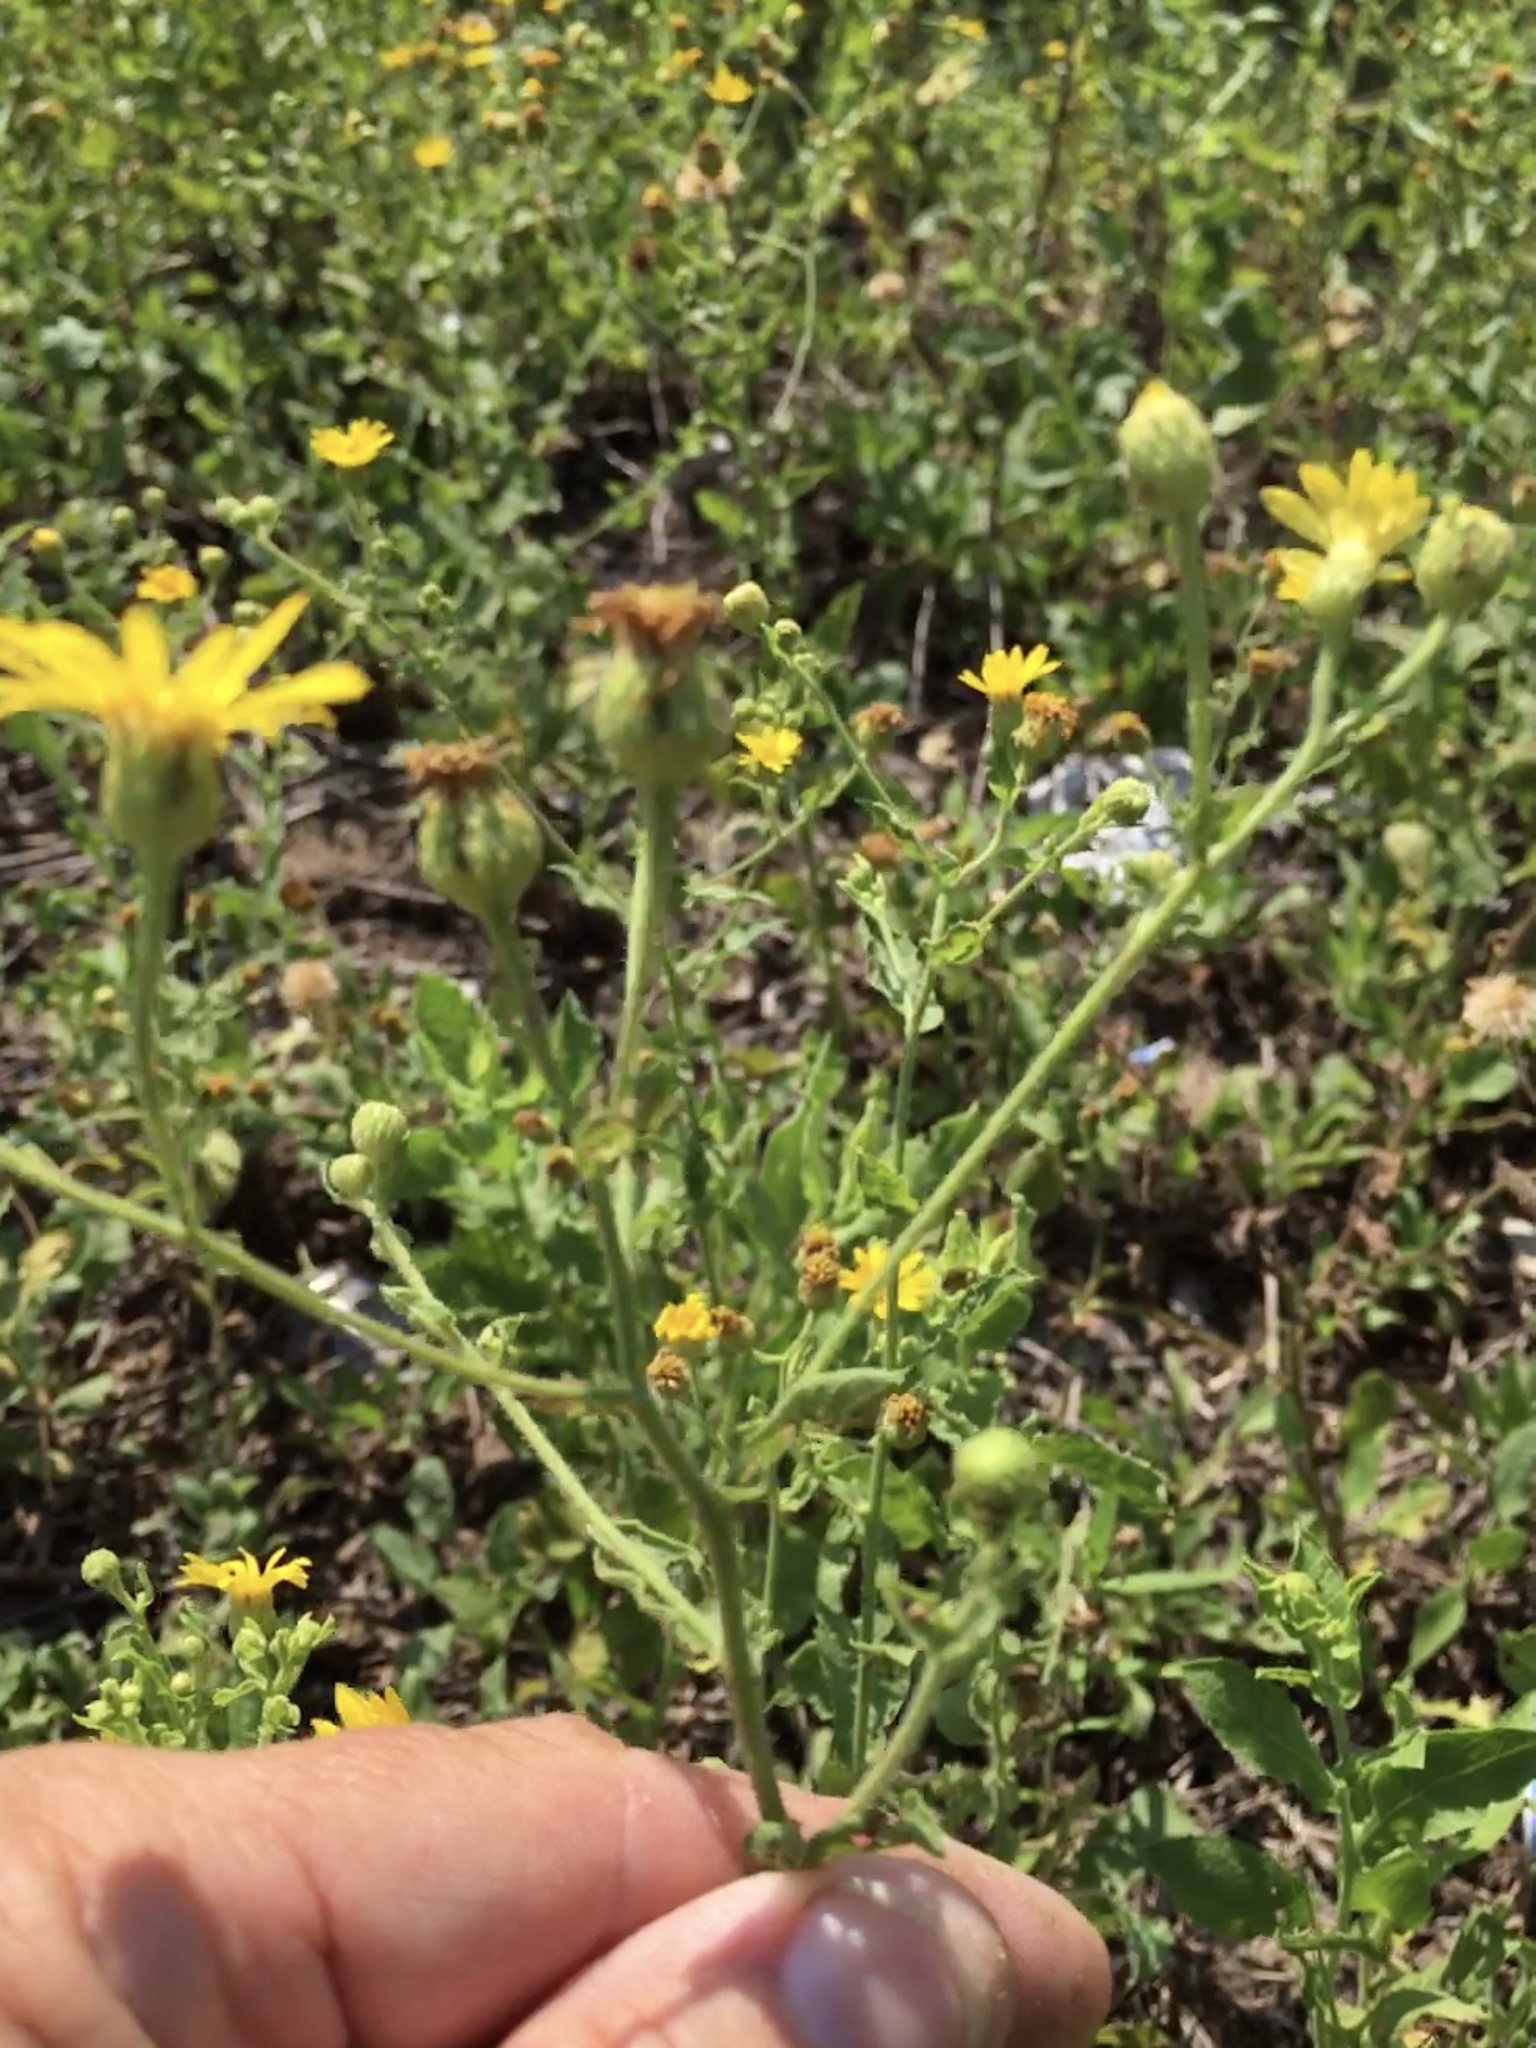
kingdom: Plantae
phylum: Tracheophyta
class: Magnoliopsida
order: Asterales
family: Asteraceae
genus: Heterotheca
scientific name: Heterotheca subaxillaris
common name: Camphorweed
